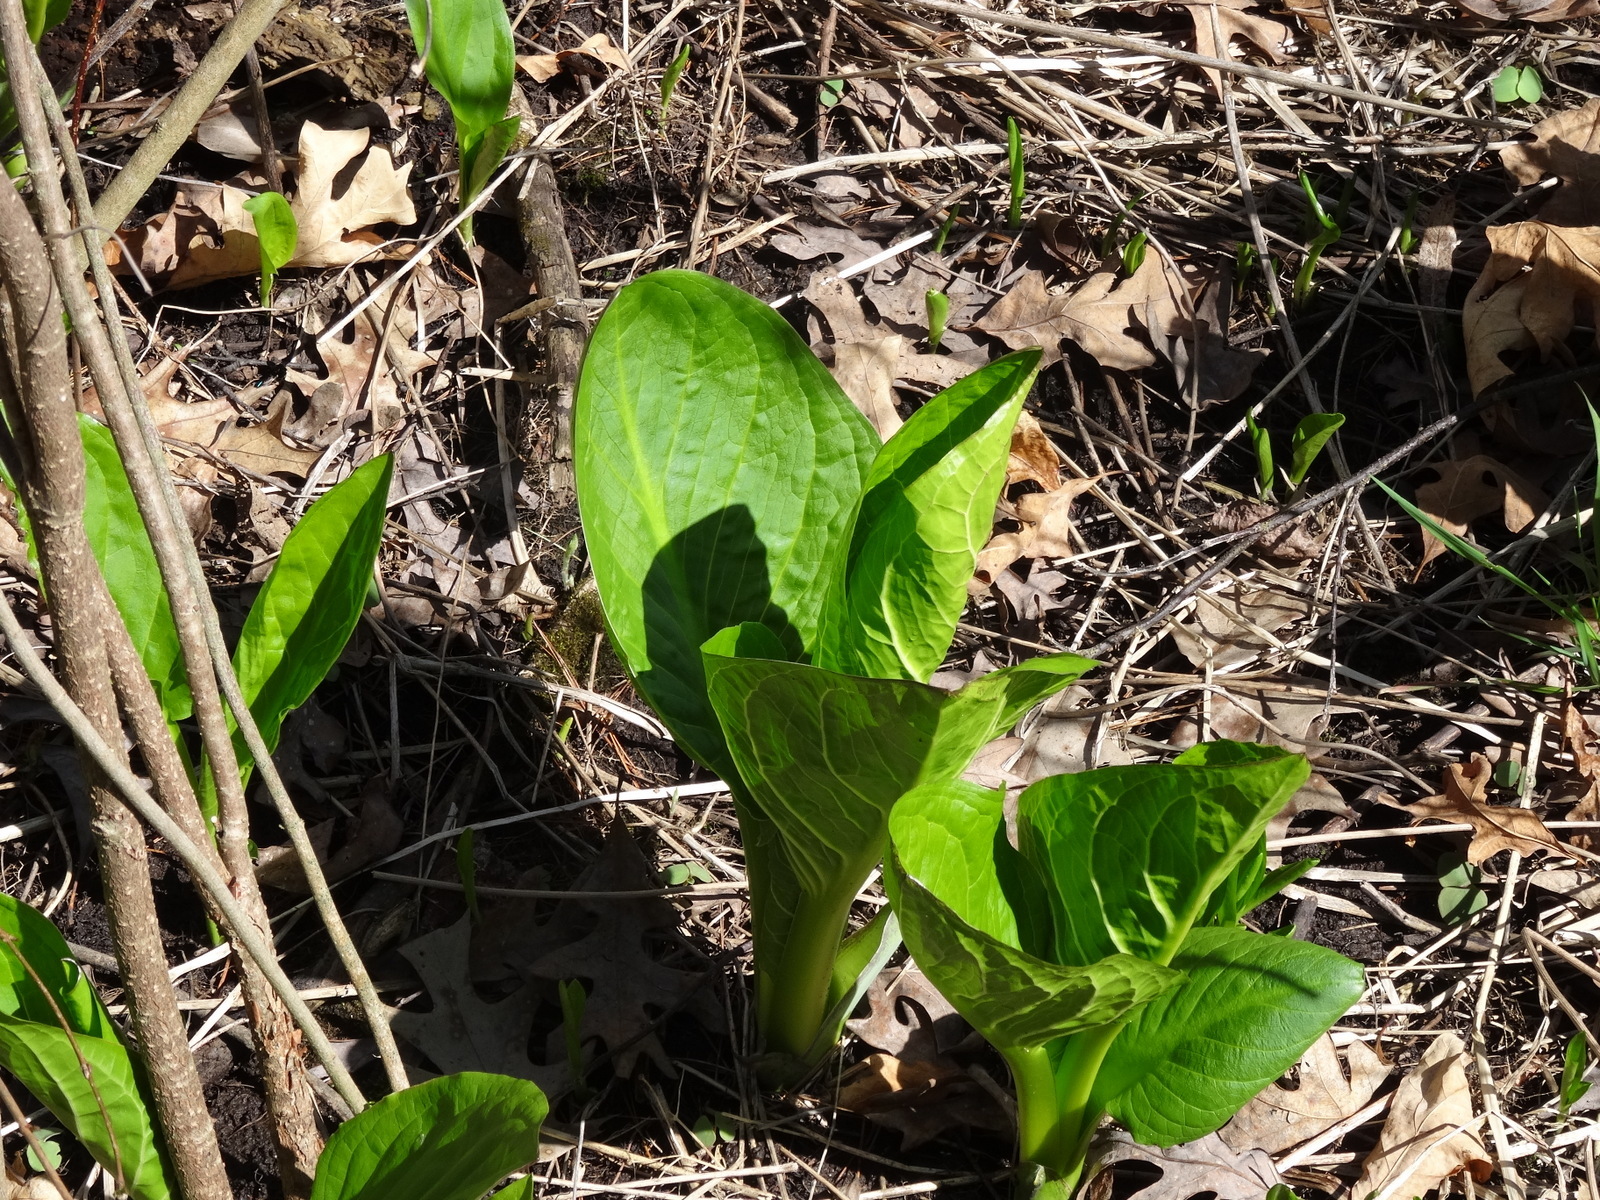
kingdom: Plantae
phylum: Tracheophyta
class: Liliopsida
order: Alismatales
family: Araceae
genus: Symplocarpus
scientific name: Symplocarpus foetidus
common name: Eastern skunk cabbage
